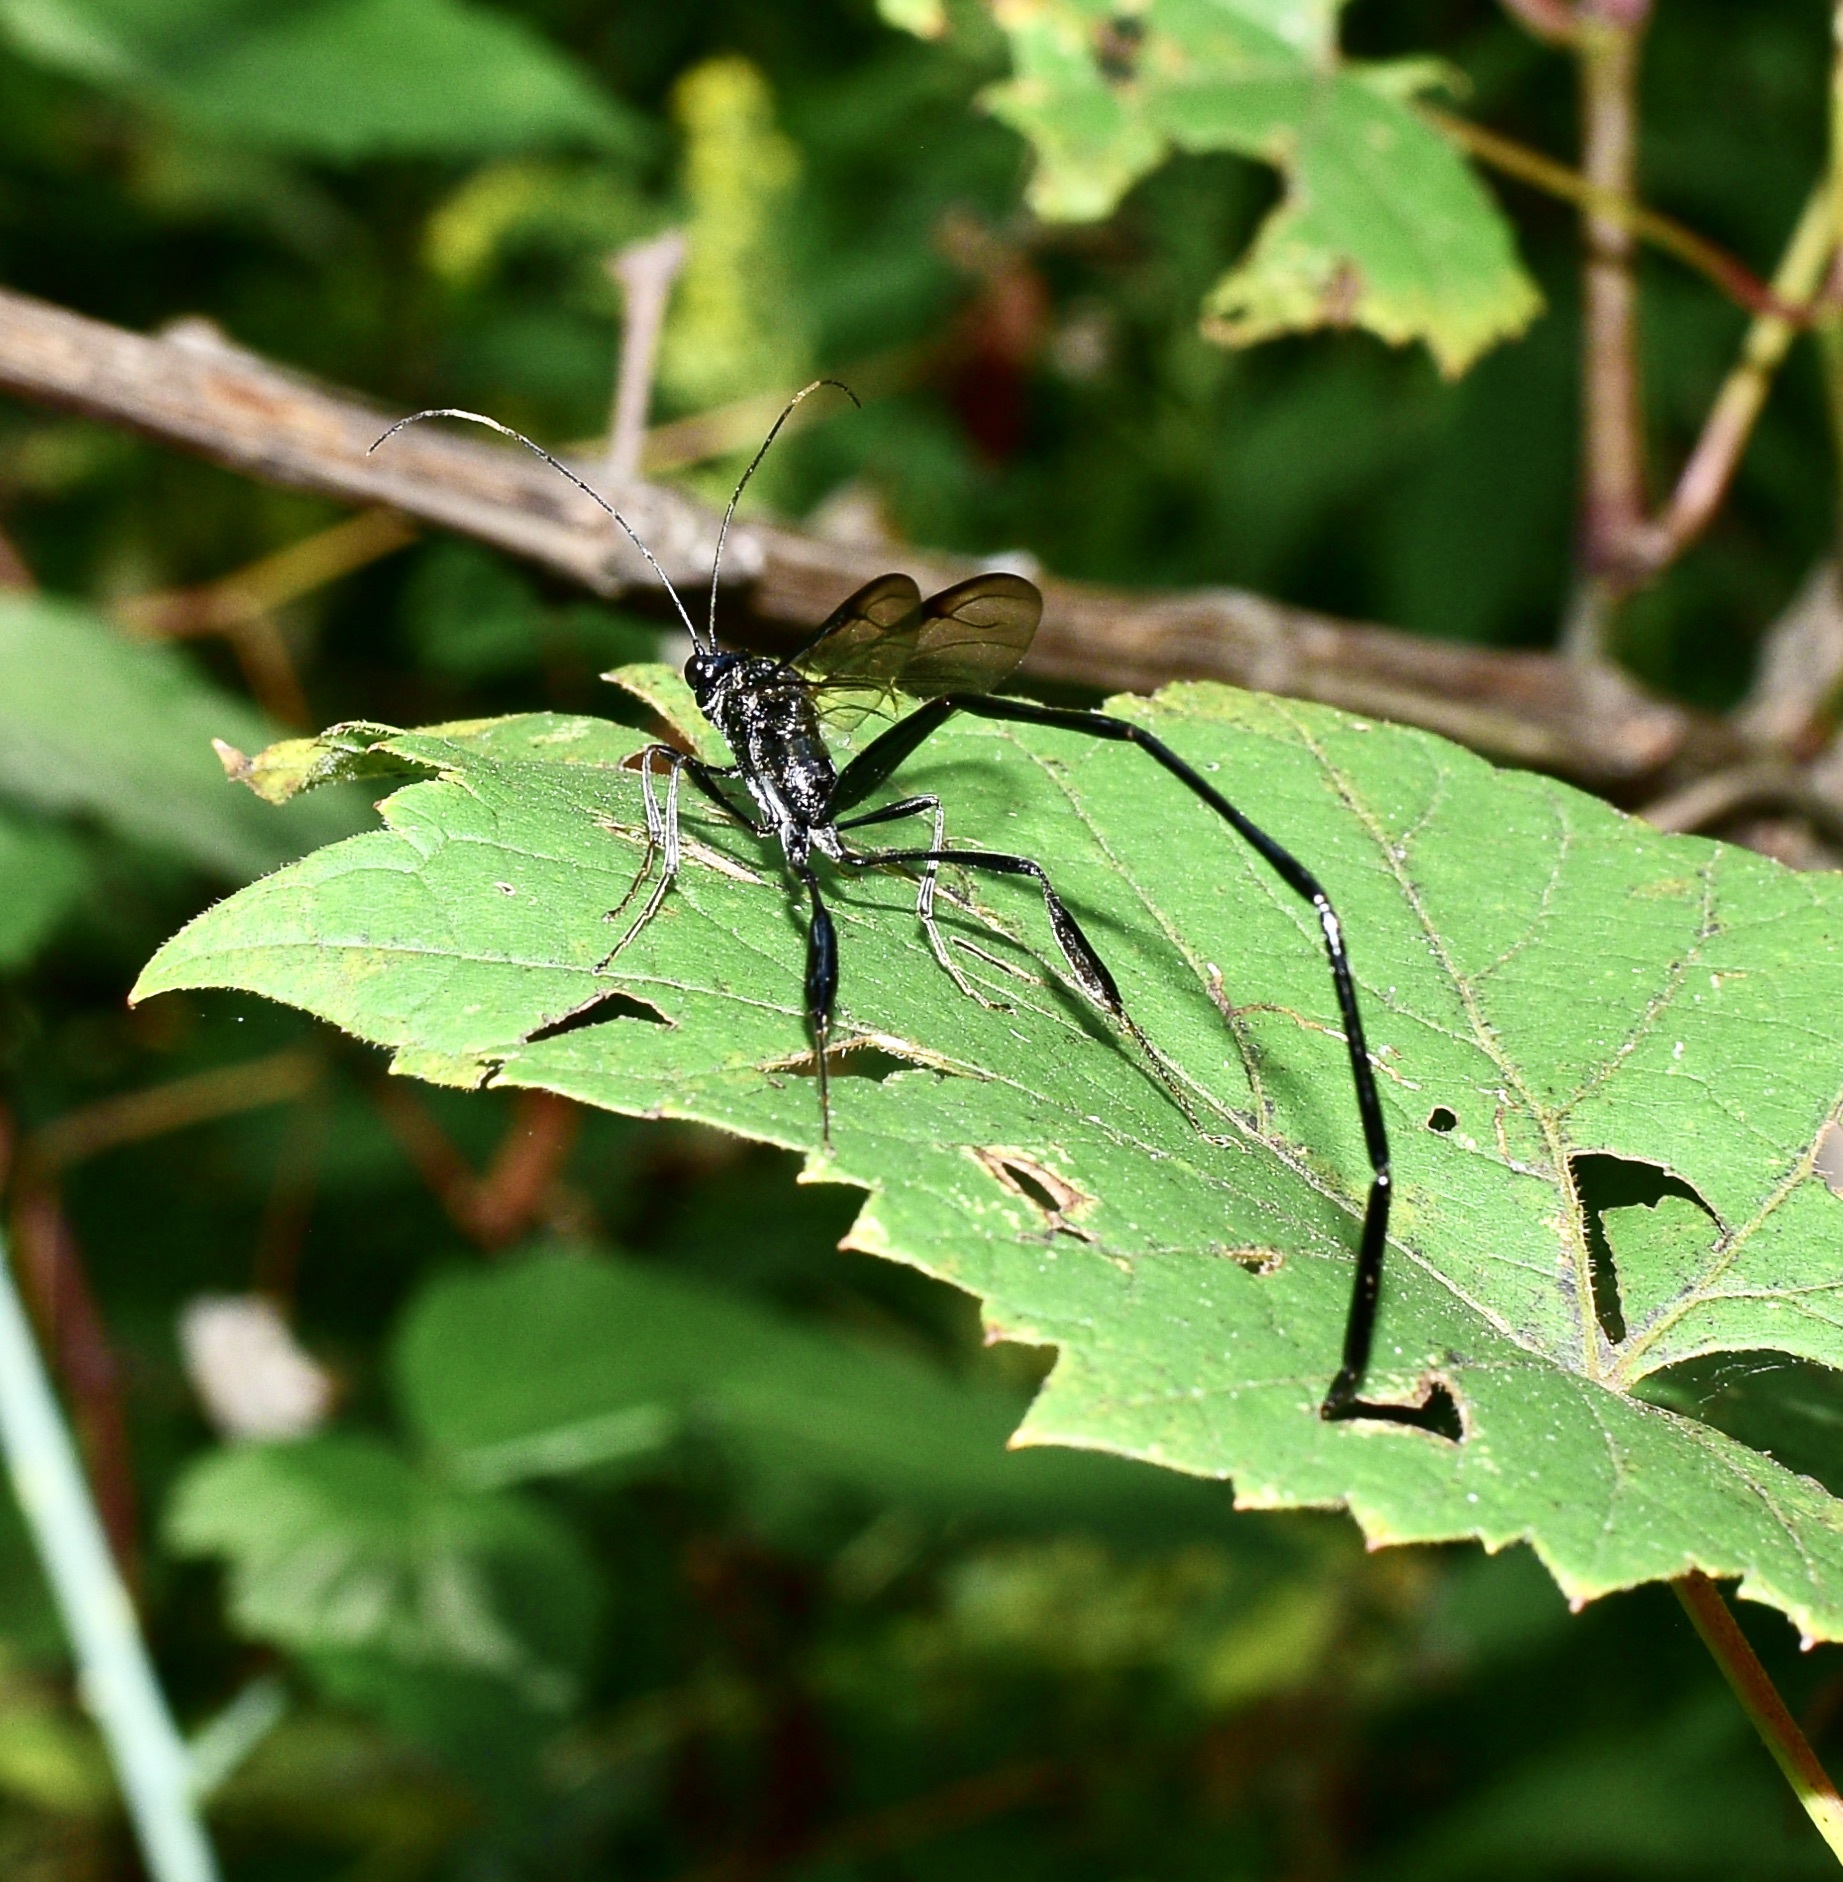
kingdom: Animalia
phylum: Arthropoda
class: Insecta
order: Hymenoptera
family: Pelecinidae
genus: Pelecinus
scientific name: Pelecinus polyturator
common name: American pelecinid wasp
